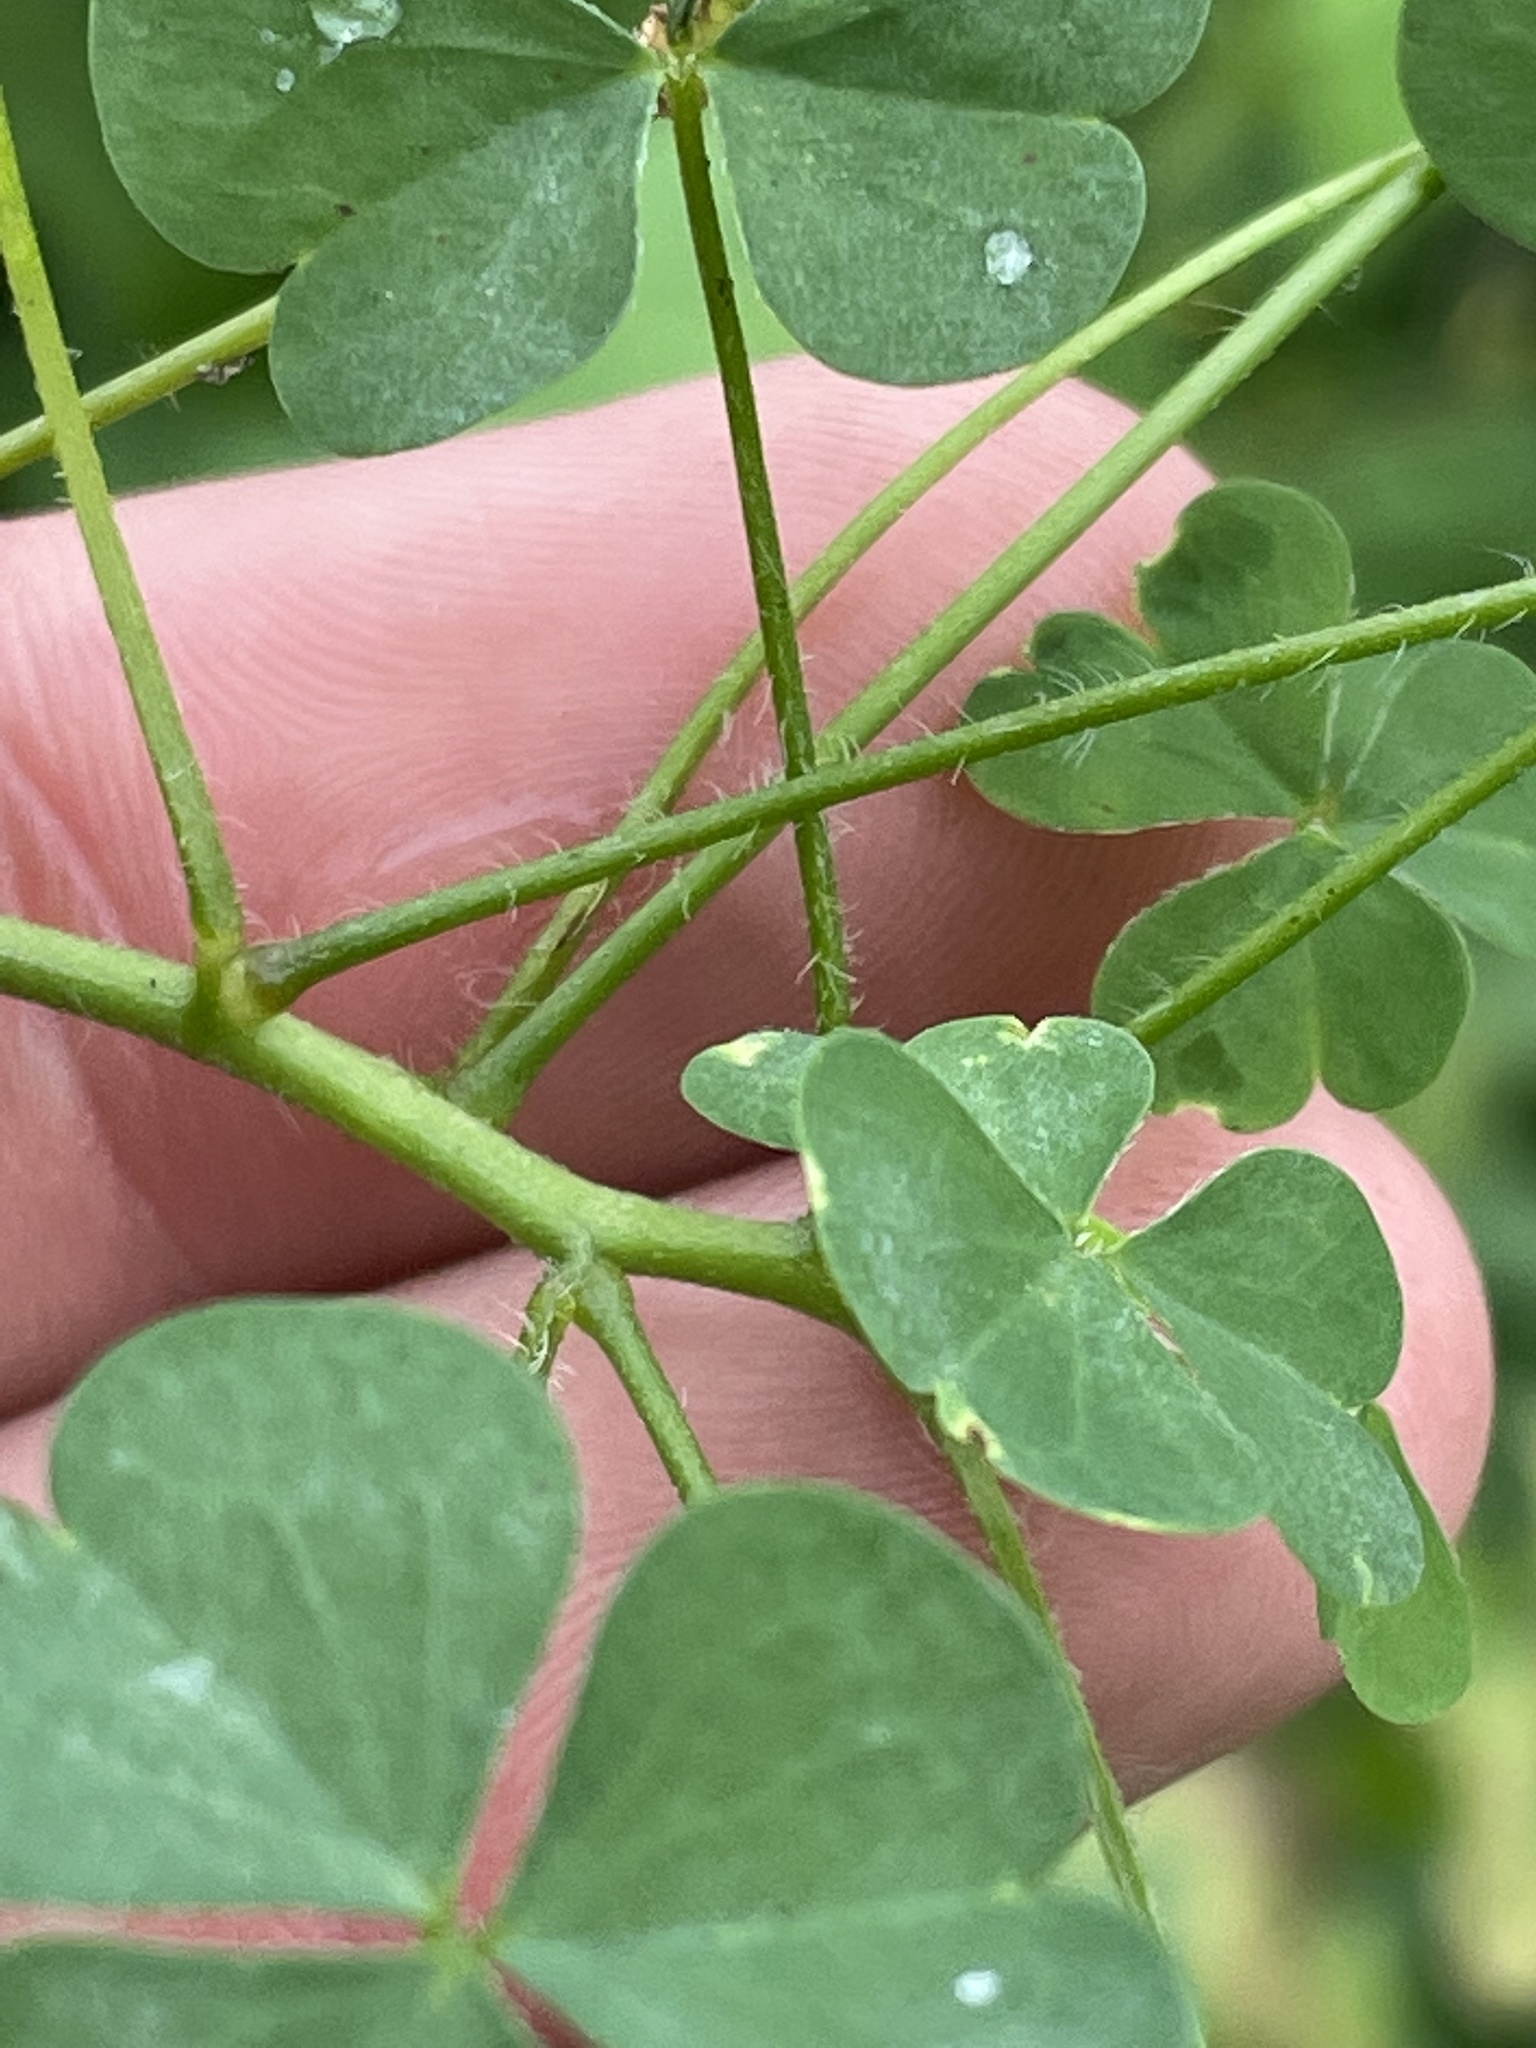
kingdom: Plantae
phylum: Tracheophyta
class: Magnoliopsida
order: Oxalidales
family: Oxalidaceae
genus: Oxalis
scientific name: Oxalis stricta
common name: Upright yellow-sorrel
